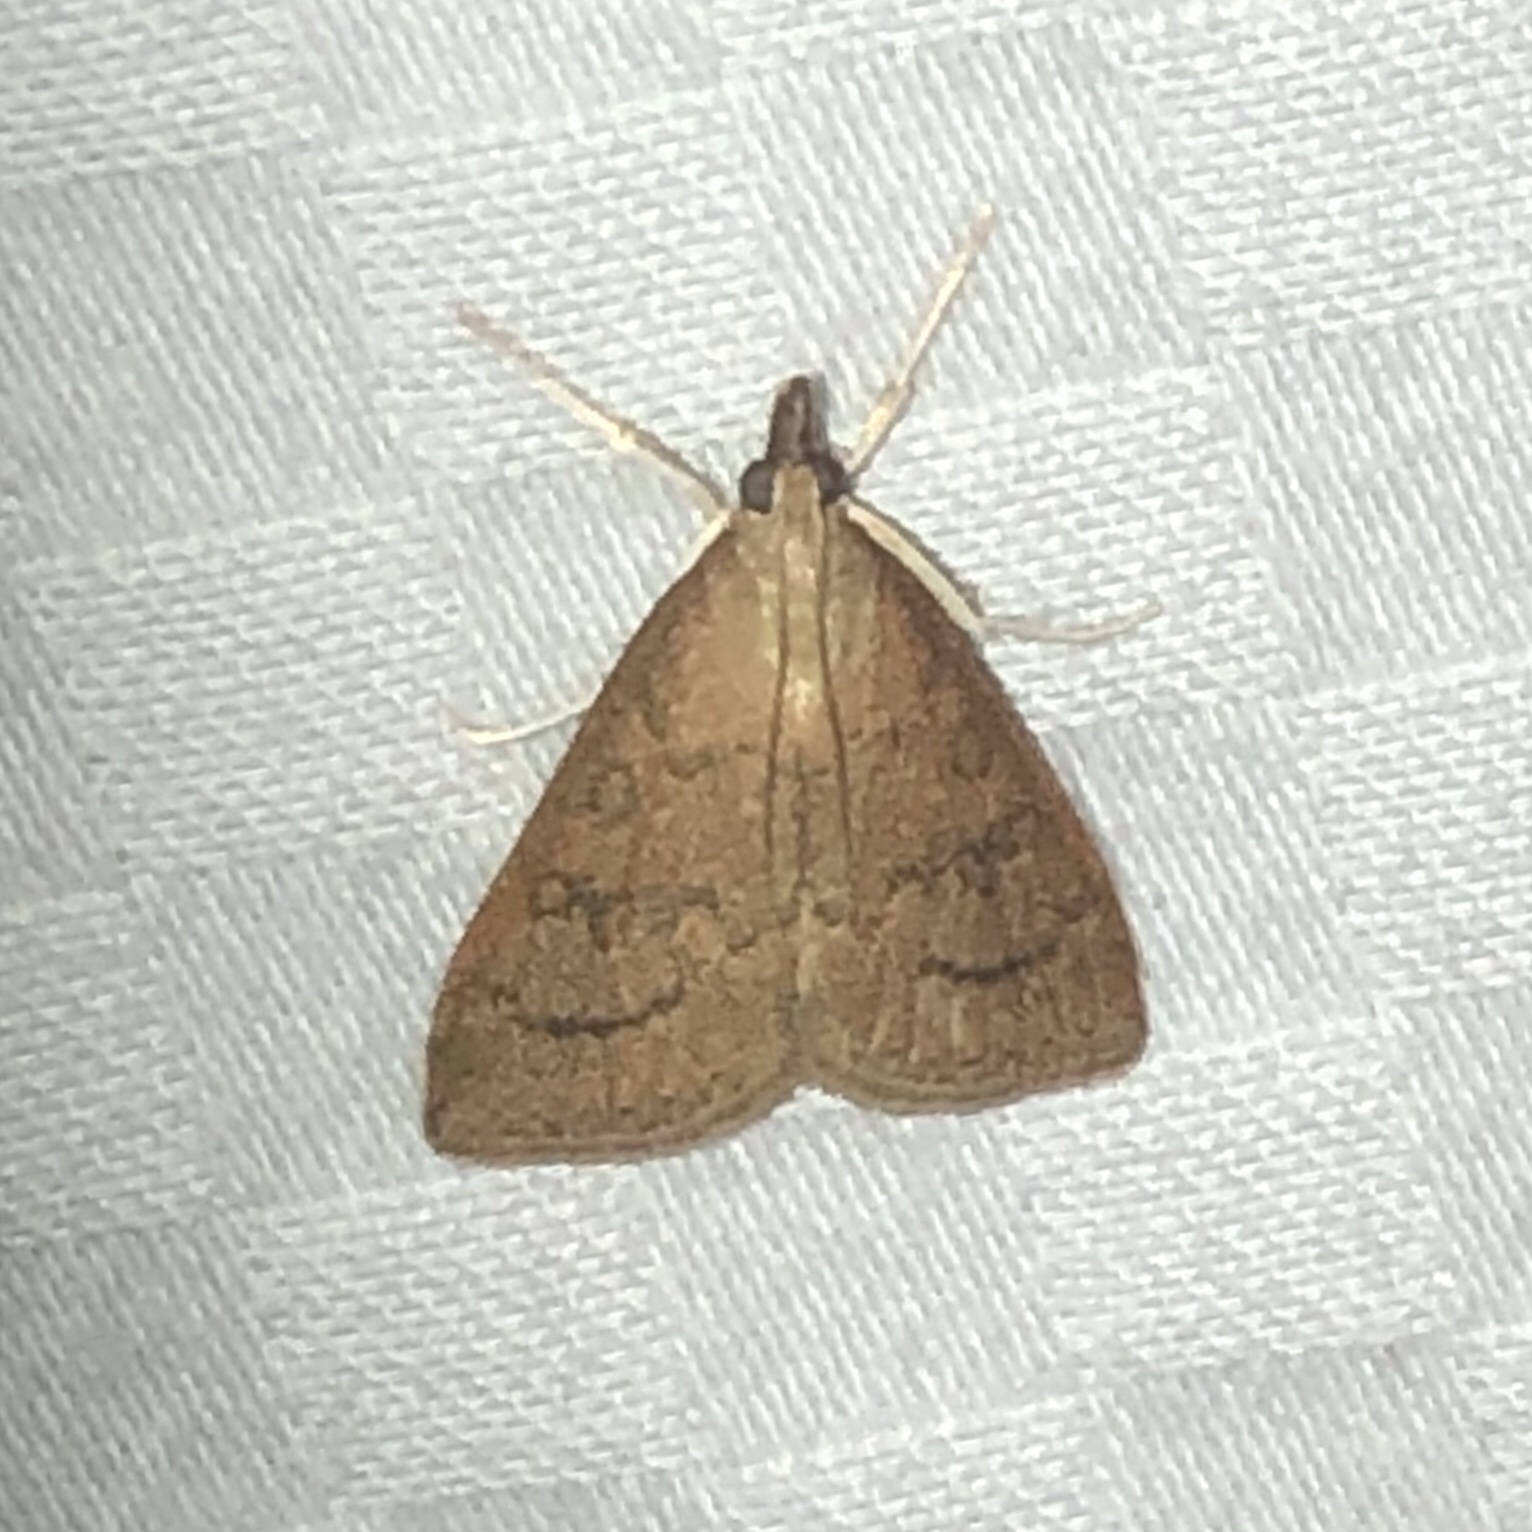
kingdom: Animalia
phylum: Arthropoda
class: Insecta
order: Lepidoptera
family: Crambidae
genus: Udea
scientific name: Udea rubigalis
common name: Celery leaftier moth
